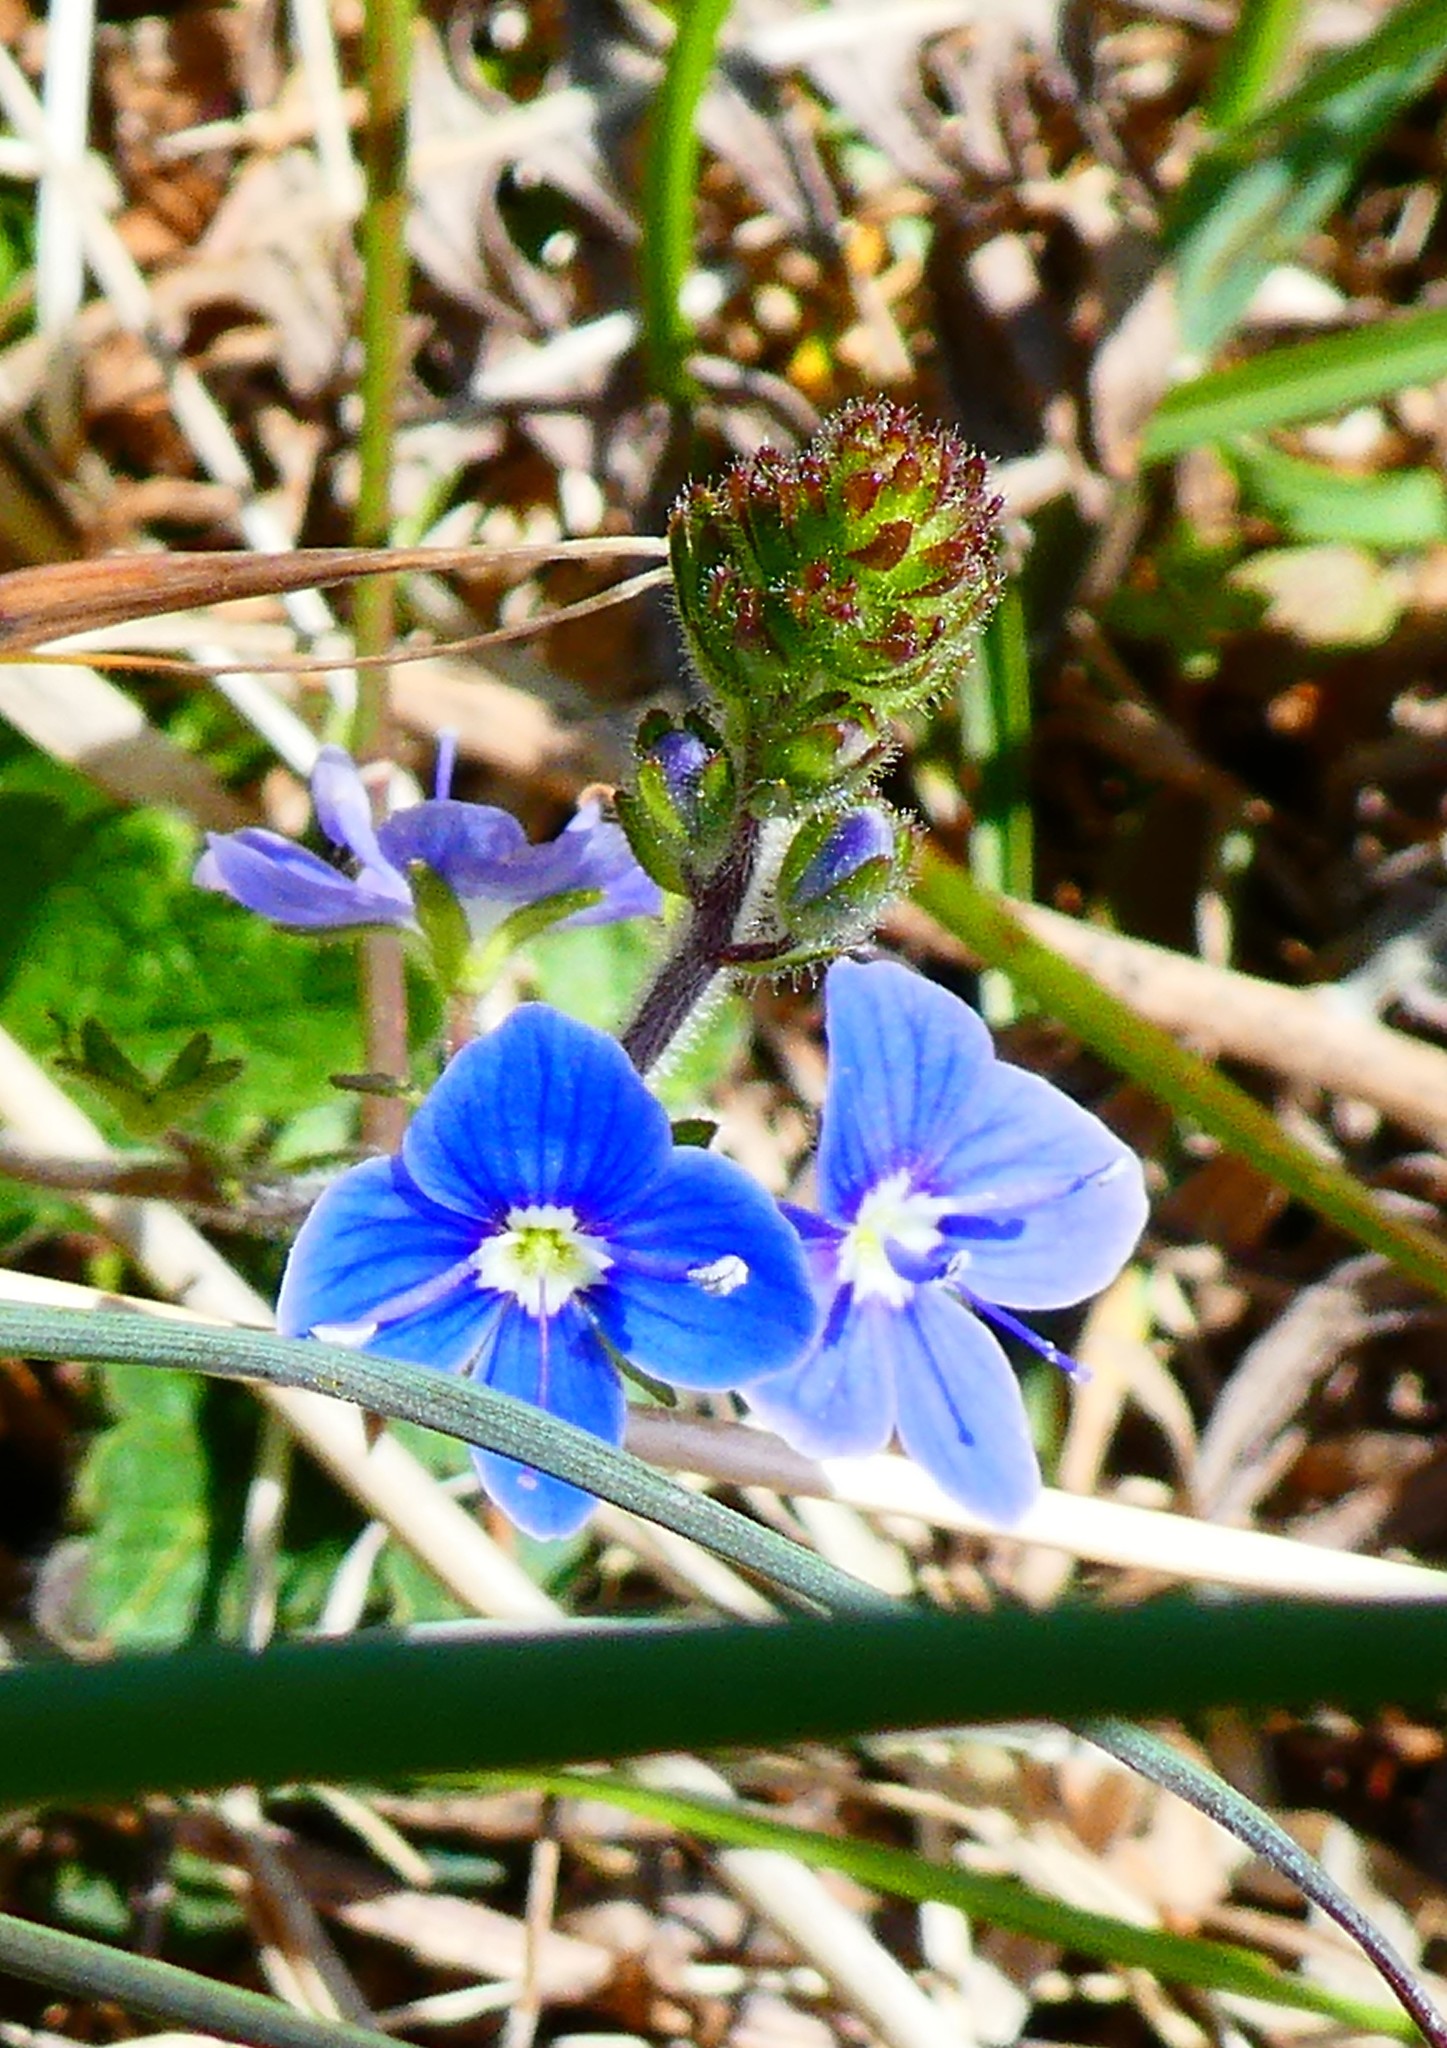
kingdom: Plantae
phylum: Tracheophyta
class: Magnoliopsida
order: Lamiales
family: Plantaginaceae
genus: Veronica
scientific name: Veronica chamaedrys
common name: Germander speedwell
